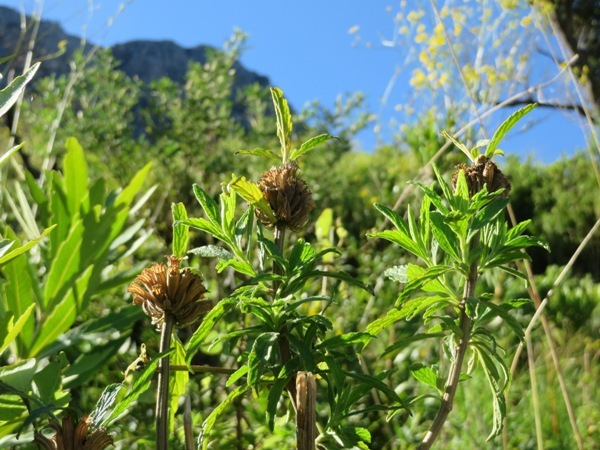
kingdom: Plantae
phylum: Tracheophyta
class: Magnoliopsida
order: Lamiales
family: Lamiaceae
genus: Leonotis
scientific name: Leonotis leonurus
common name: Lion's ear
